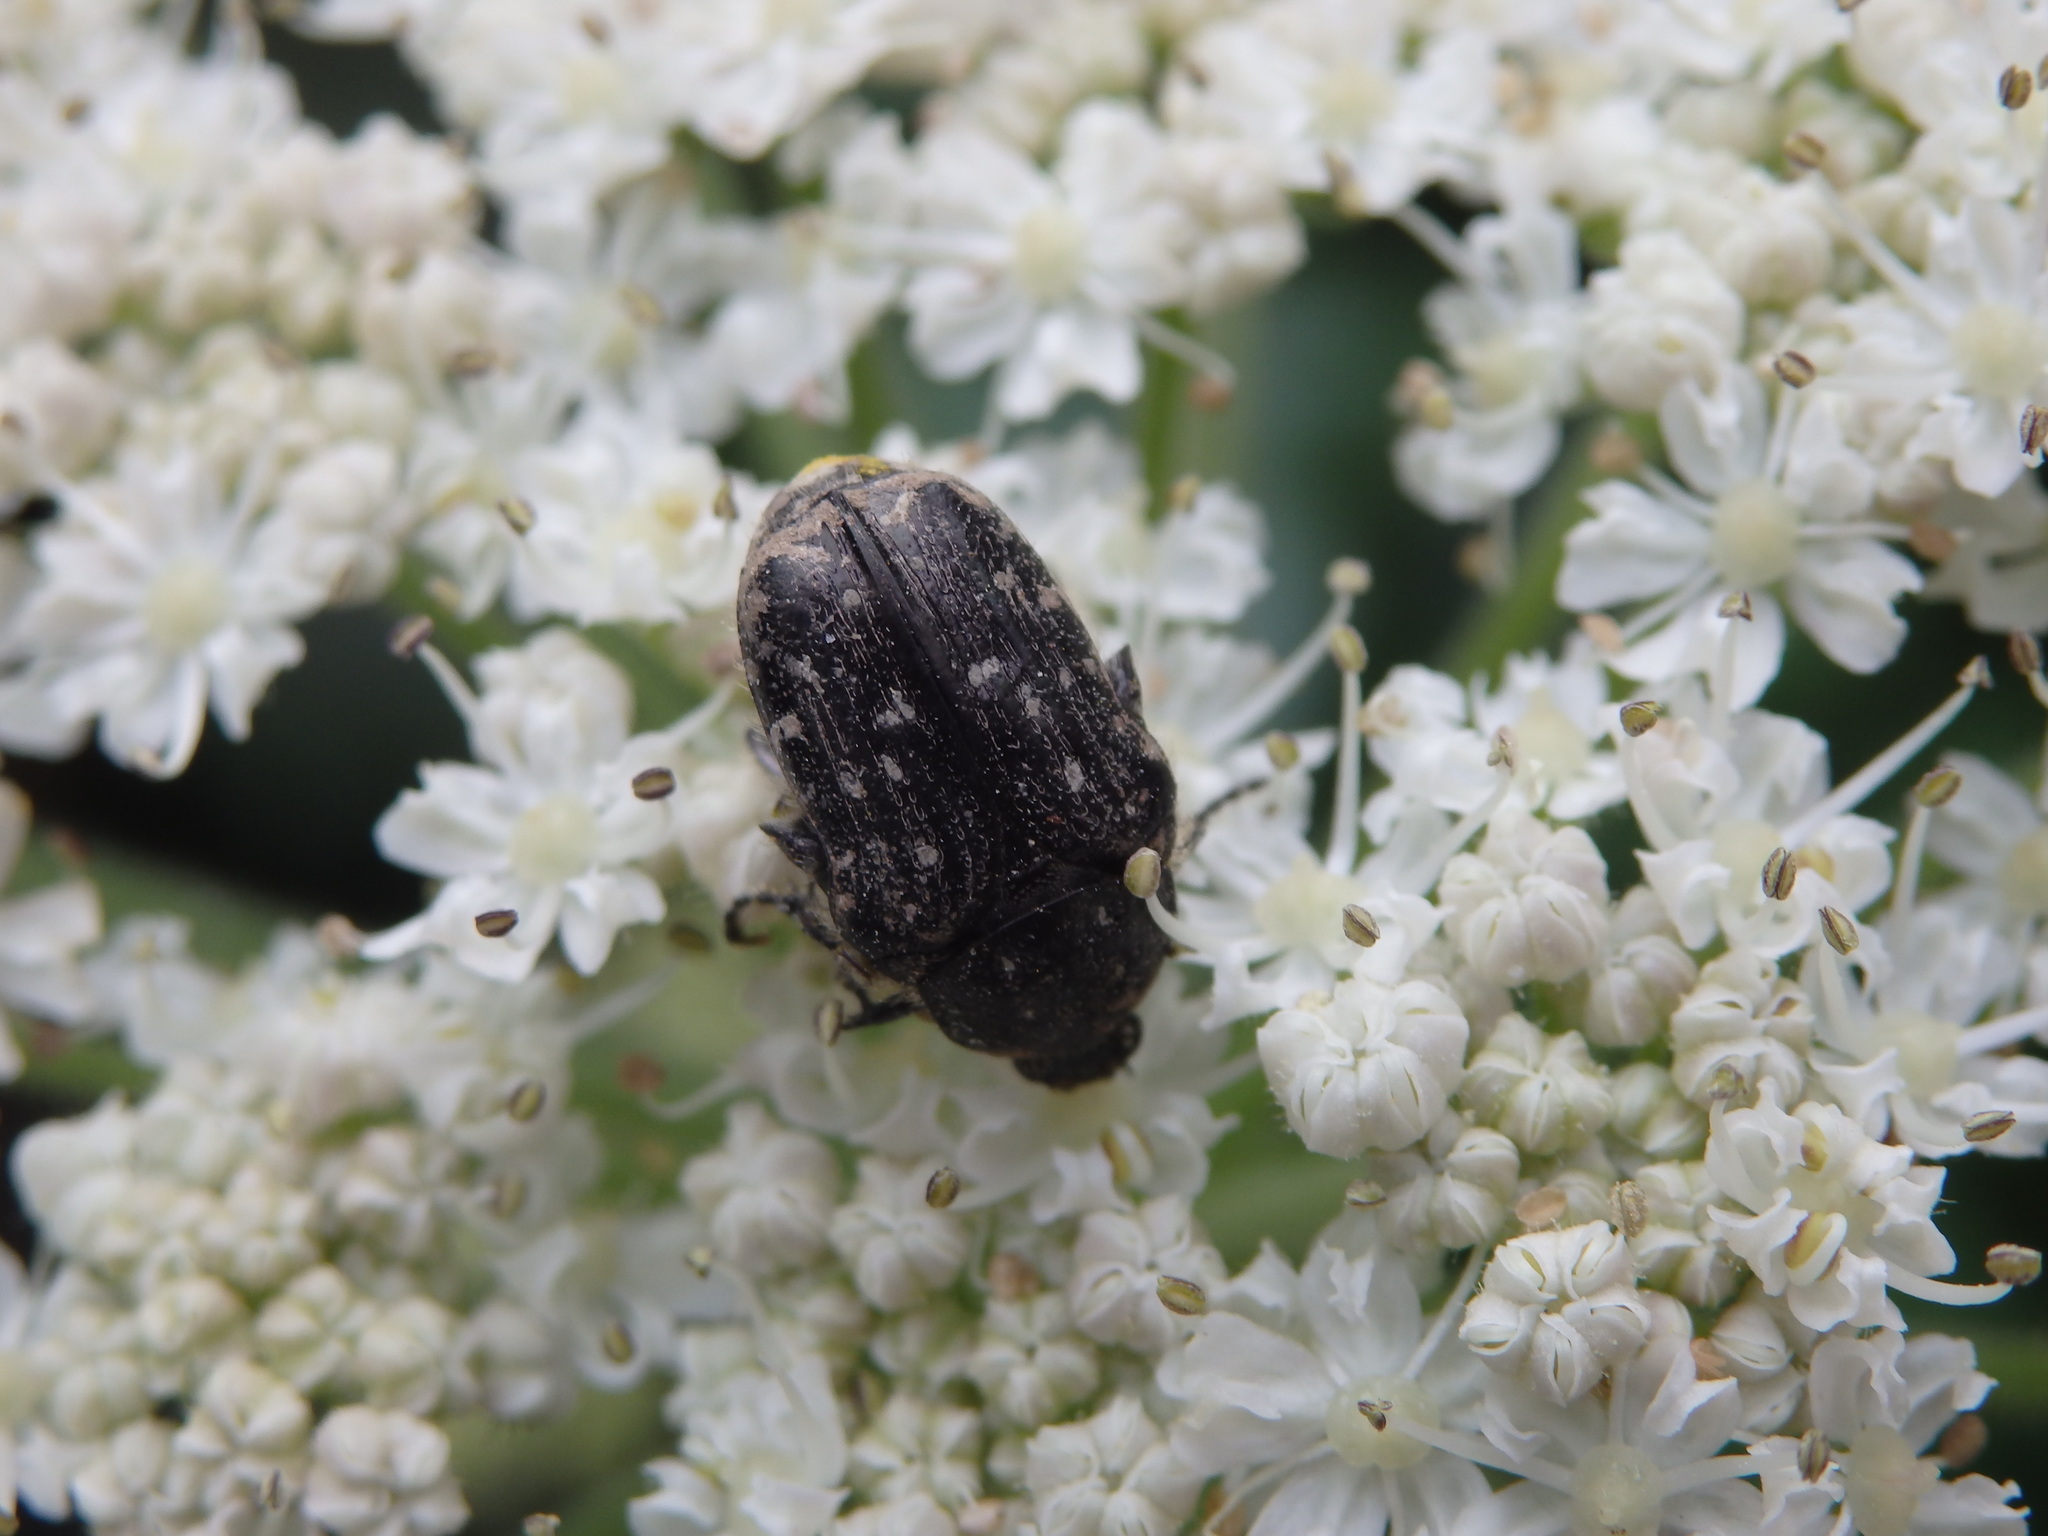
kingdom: Animalia
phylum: Arthropoda
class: Insecta
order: Coleoptera
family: Scarabaeidae
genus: Oxythyrea
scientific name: Oxythyrea funesta
